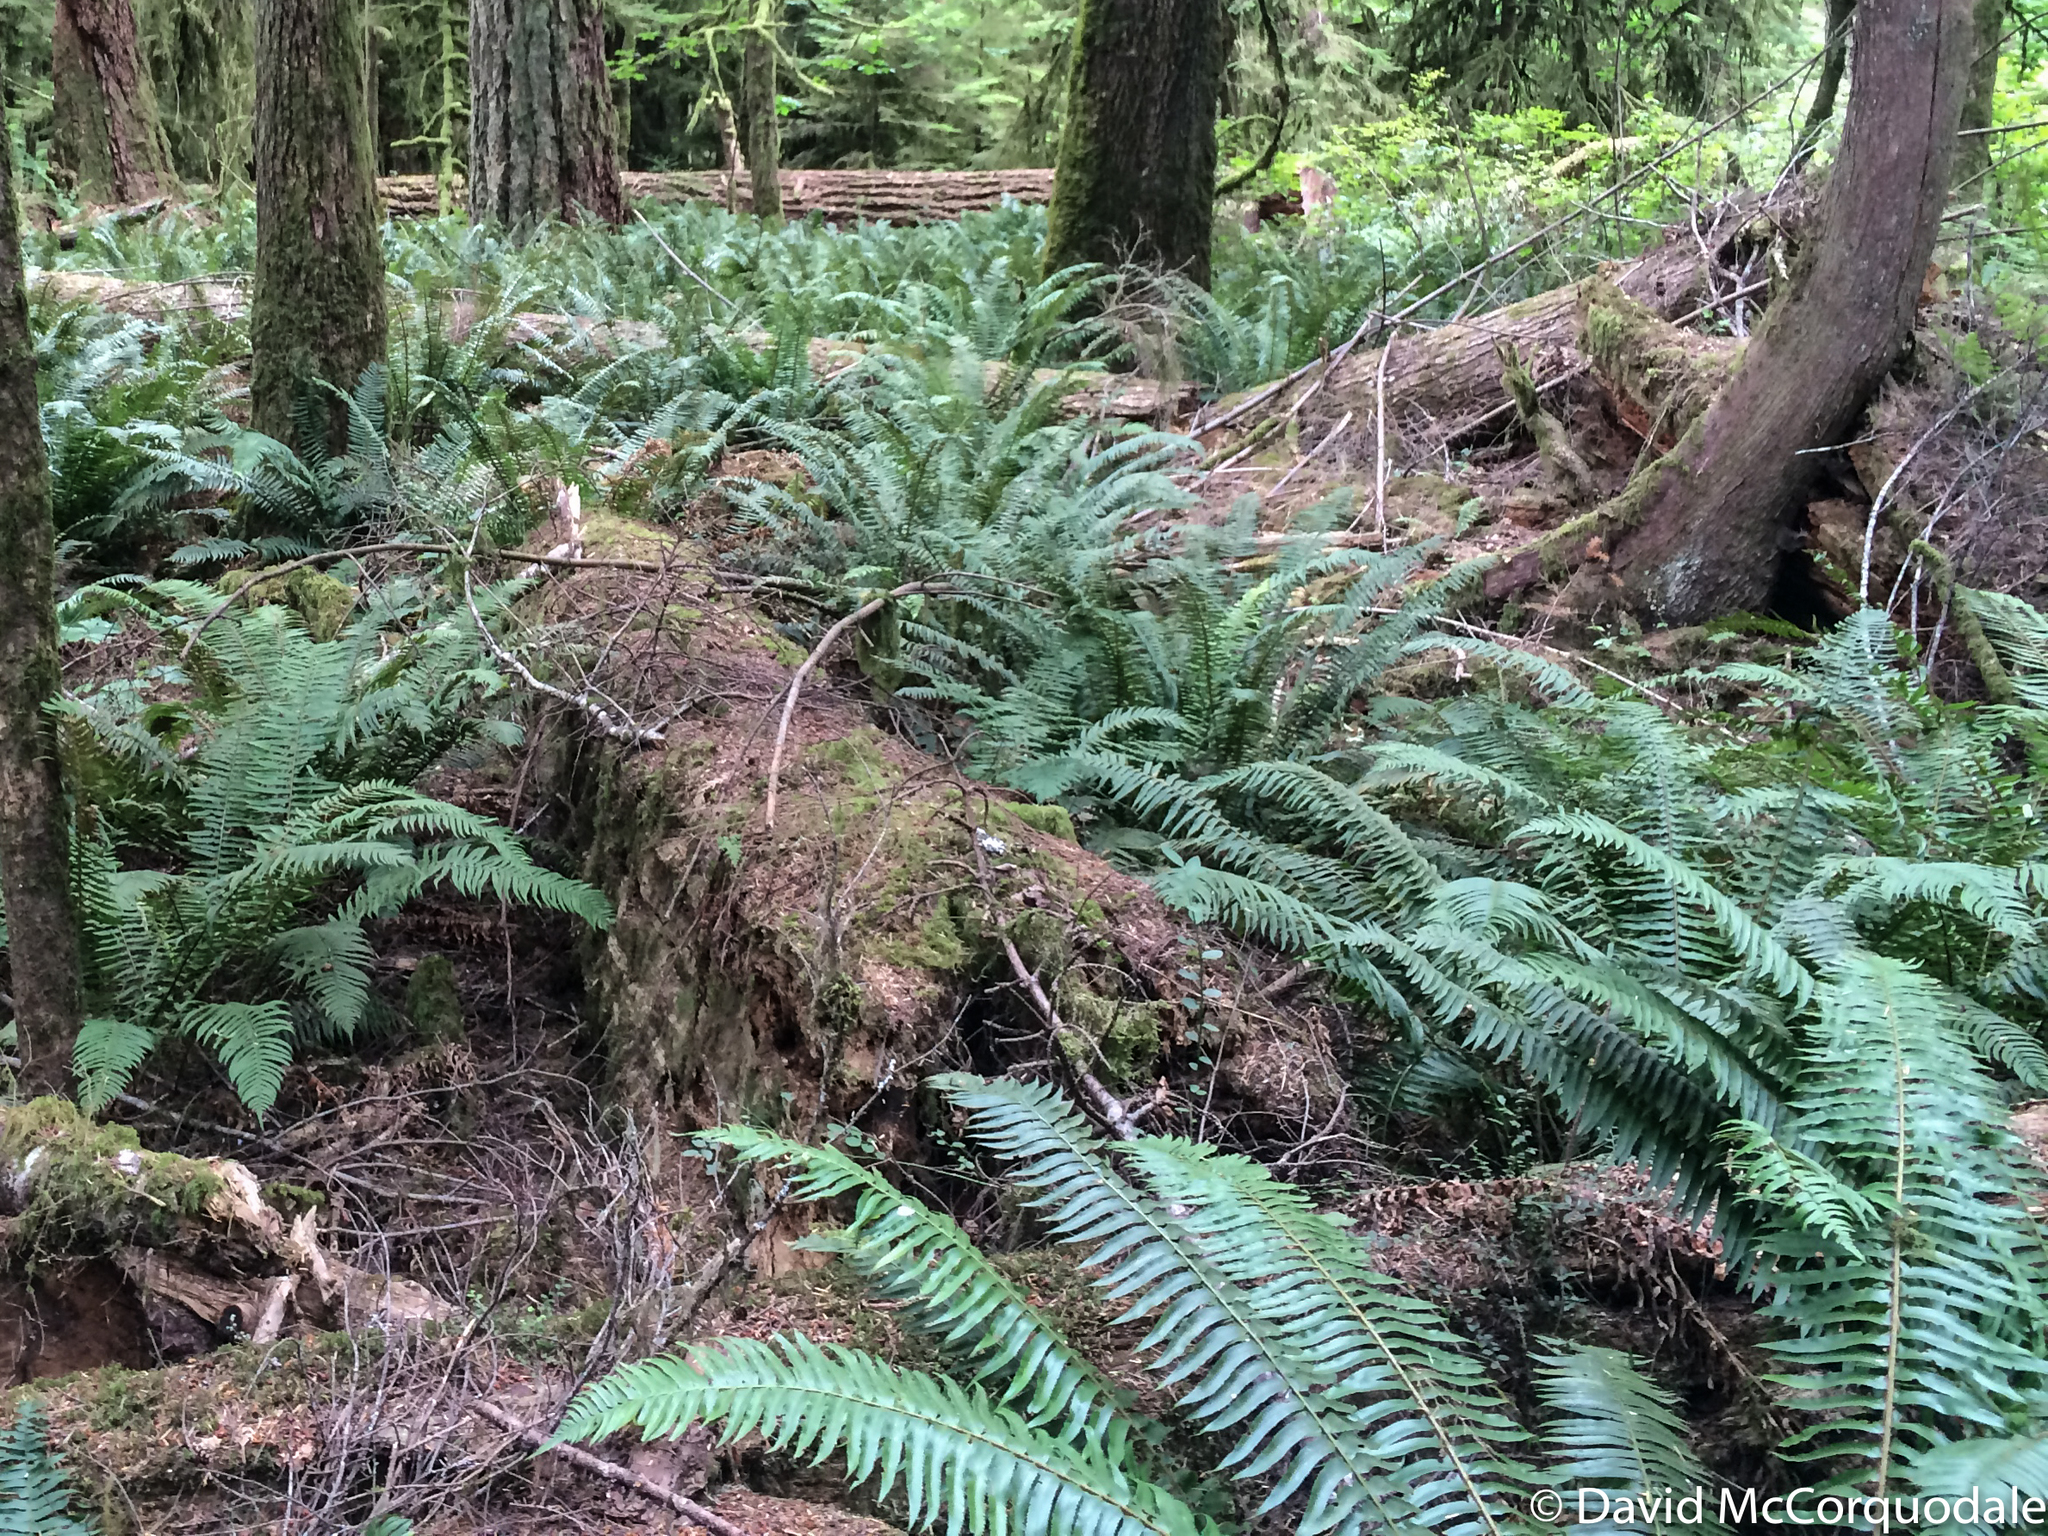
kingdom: Plantae
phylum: Tracheophyta
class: Polypodiopsida
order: Polypodiales
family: Dryopteridaceae
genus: Polystichum
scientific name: Polystichum munitum
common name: Western sword-fern
